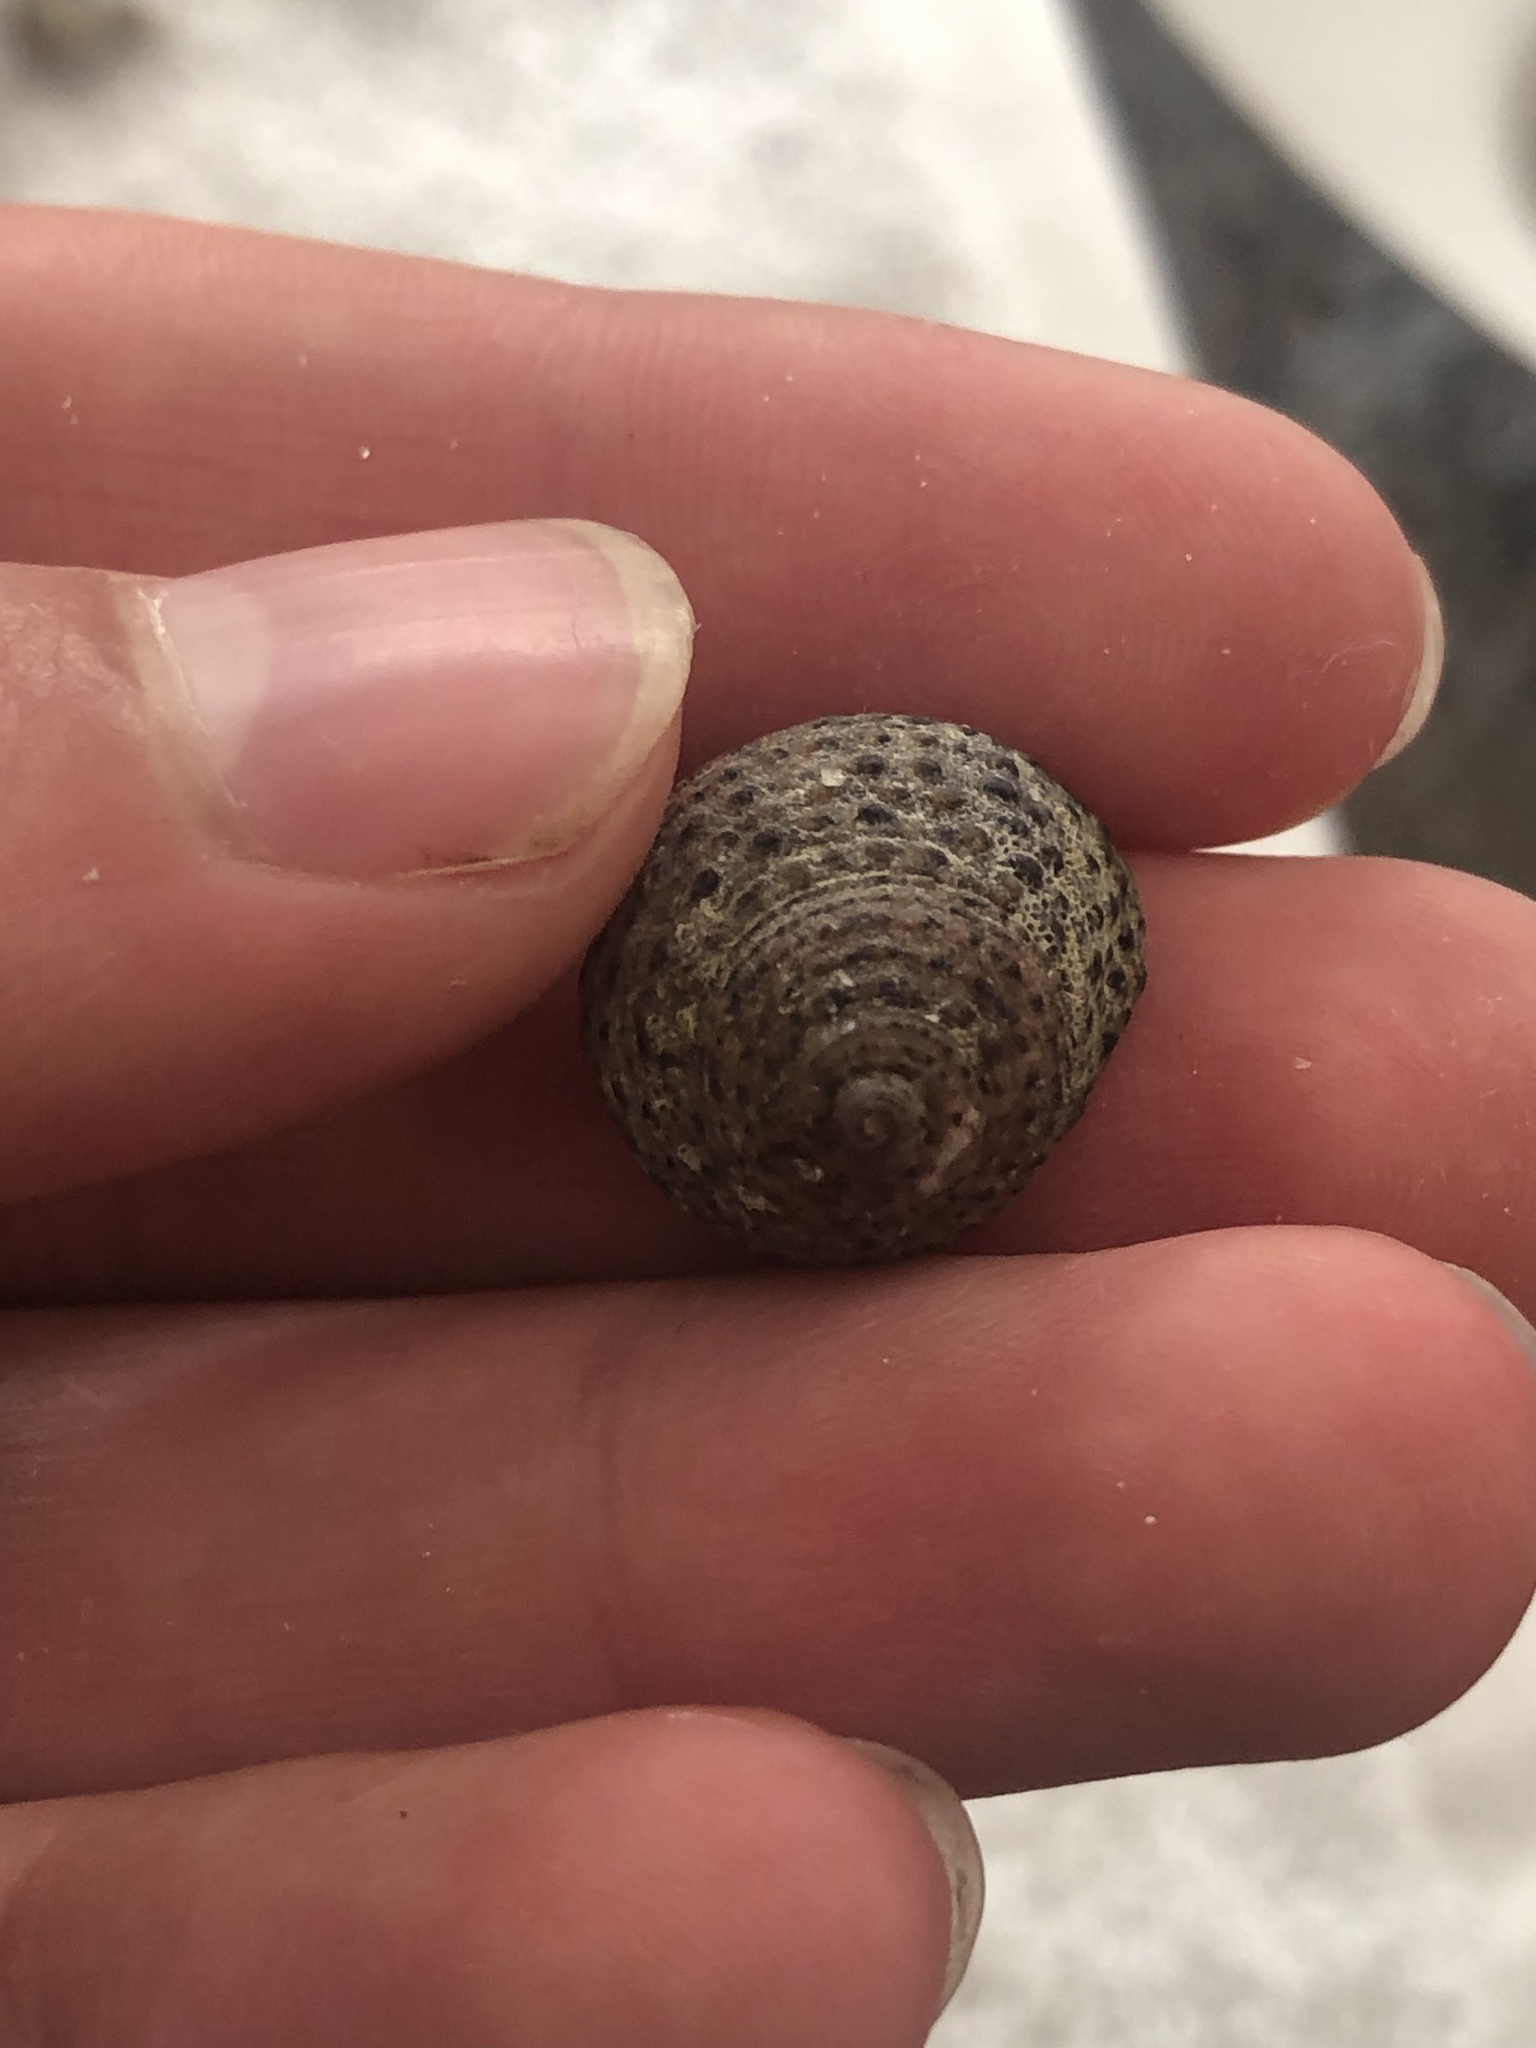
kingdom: Animalia
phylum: Mollusca
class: Gastropoda
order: Trochida
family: Tegulidae
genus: Tegula
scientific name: Tegula eiseni
